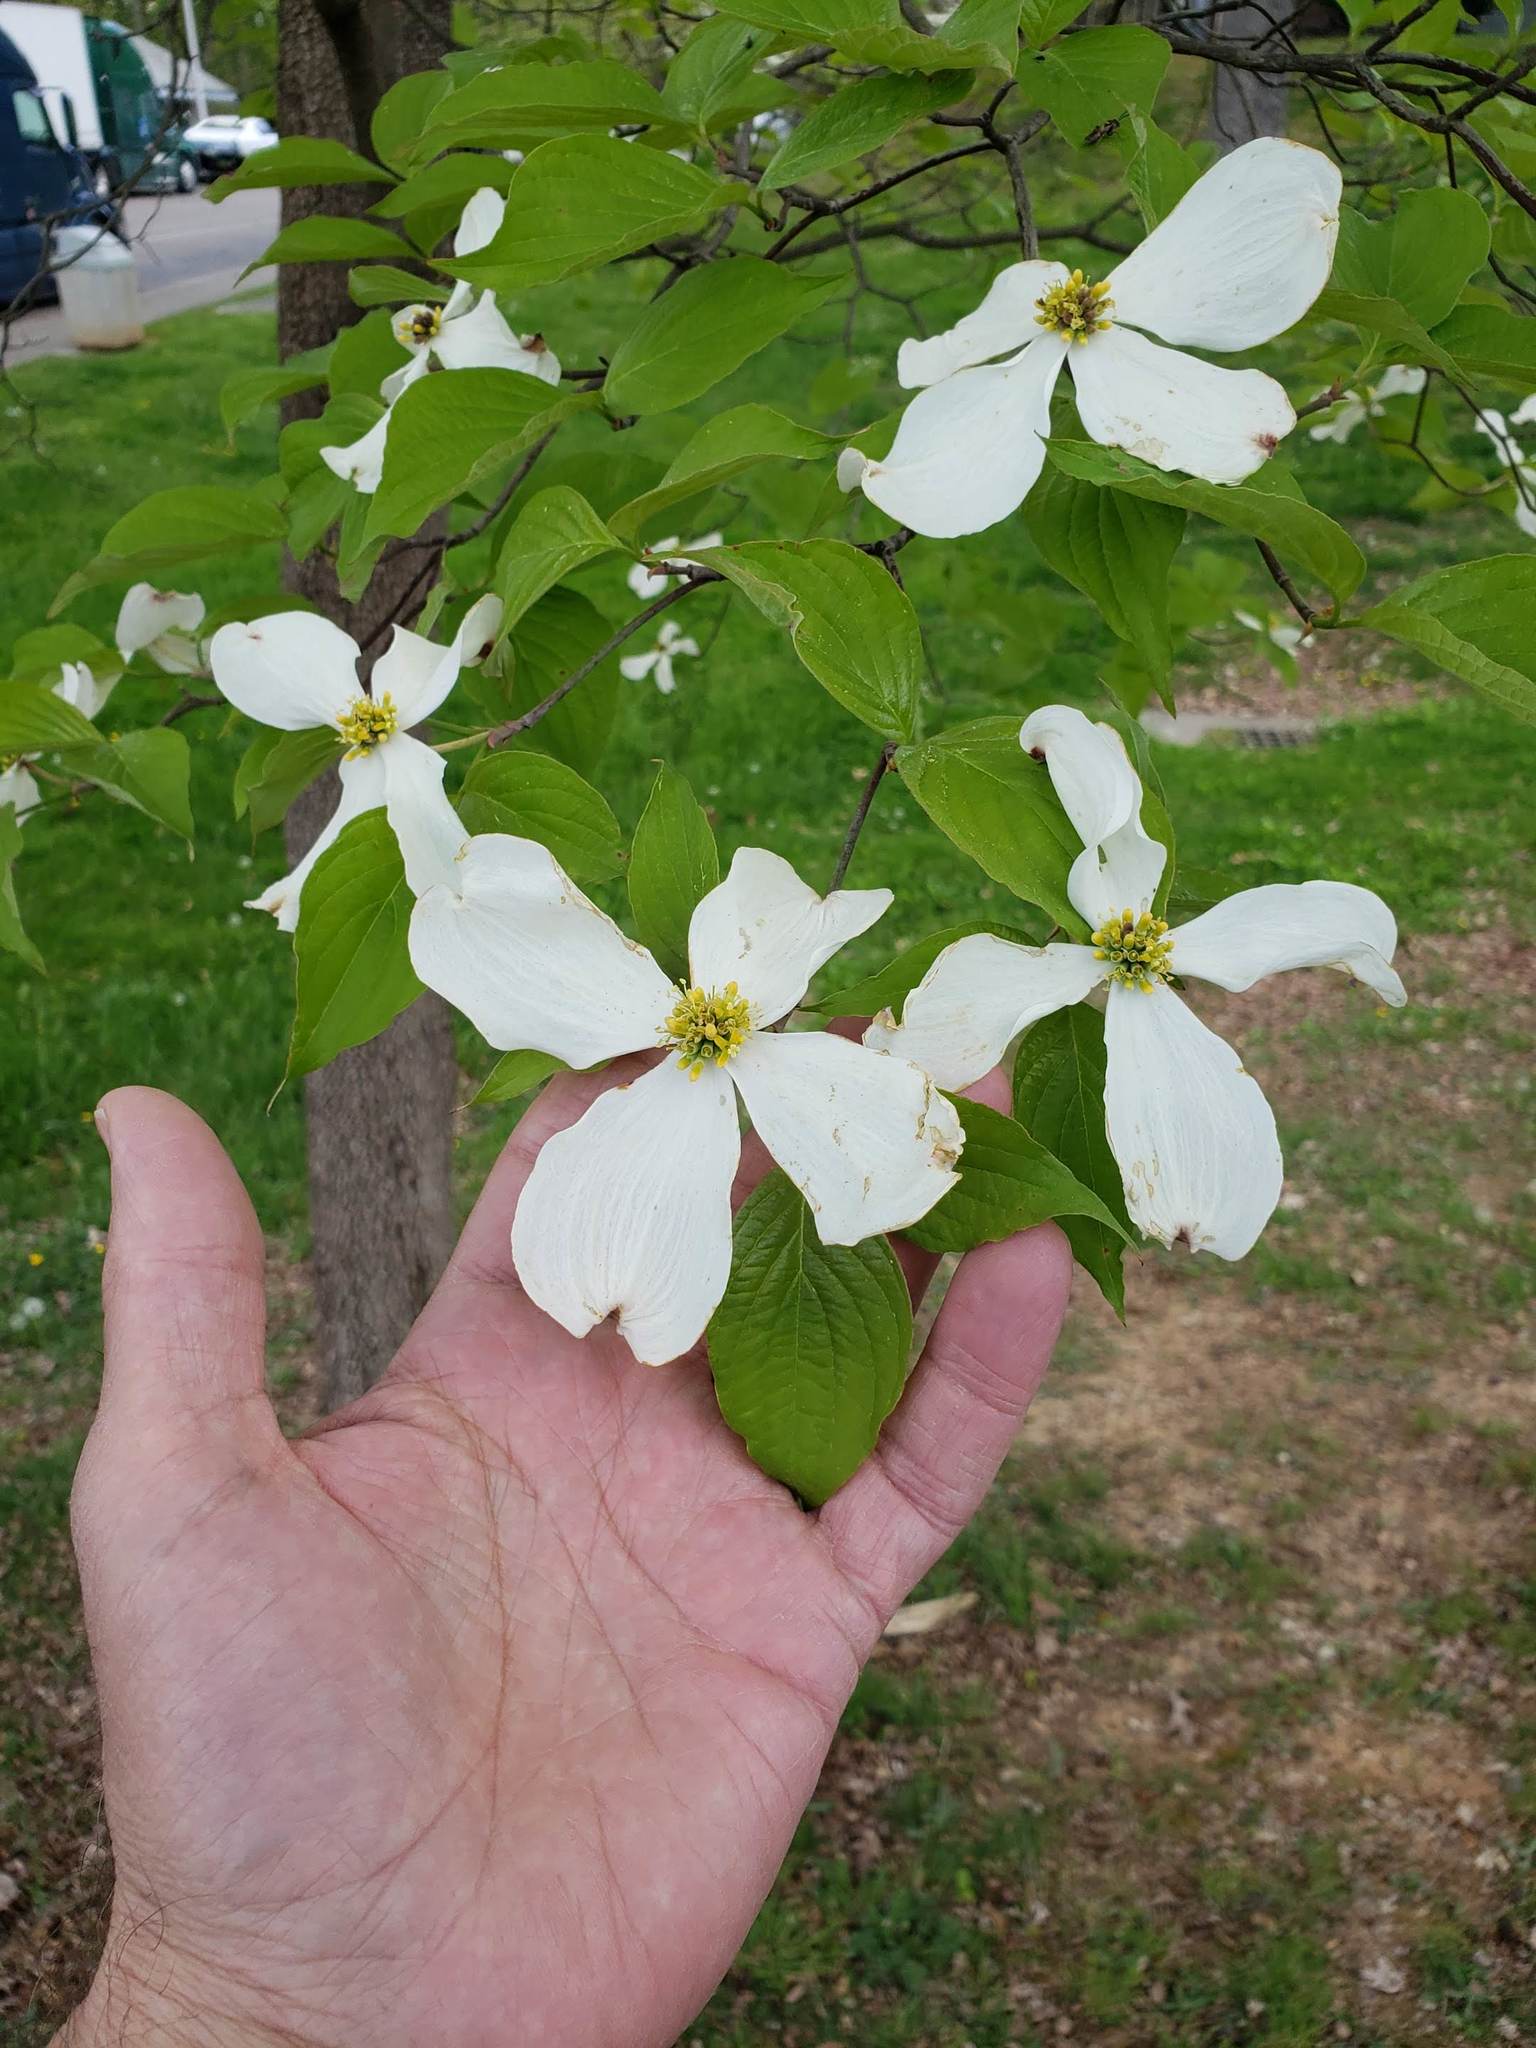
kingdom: Plantae
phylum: Tracheophyta
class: Magnoliopsida
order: Cornales
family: Cornaceae
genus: Cornus
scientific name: Cornus florida
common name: Flowering dogwood
